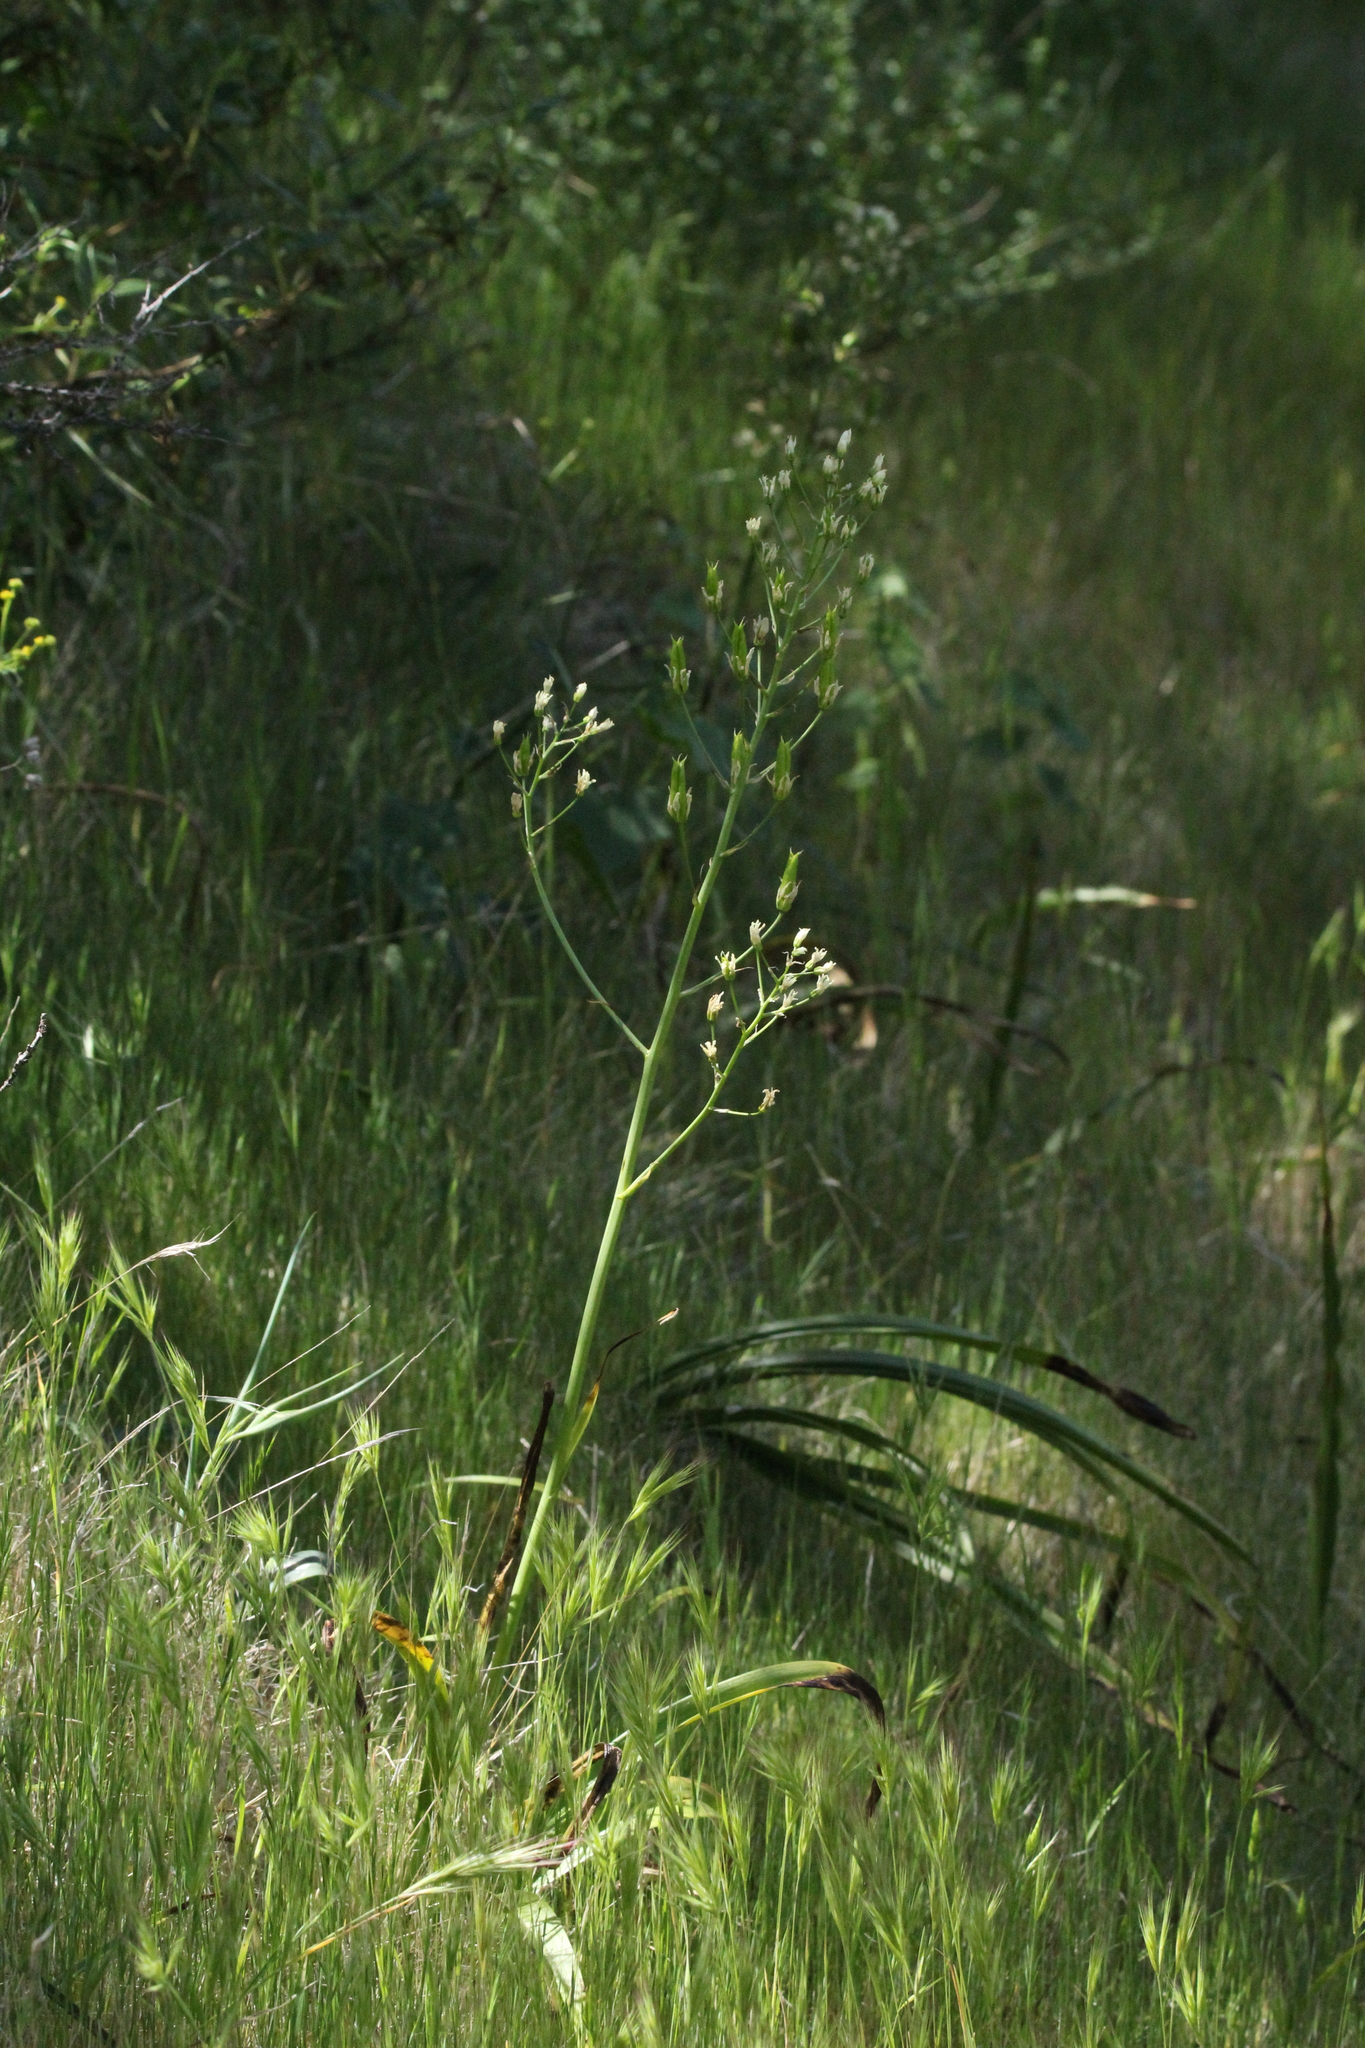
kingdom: Plantae
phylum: Tracheophyta
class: Liliopsida
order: Liliales
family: Melanthiaceae
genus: Toxicoscordion
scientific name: Toxicoscordion fremontii
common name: Fremont's death camas
